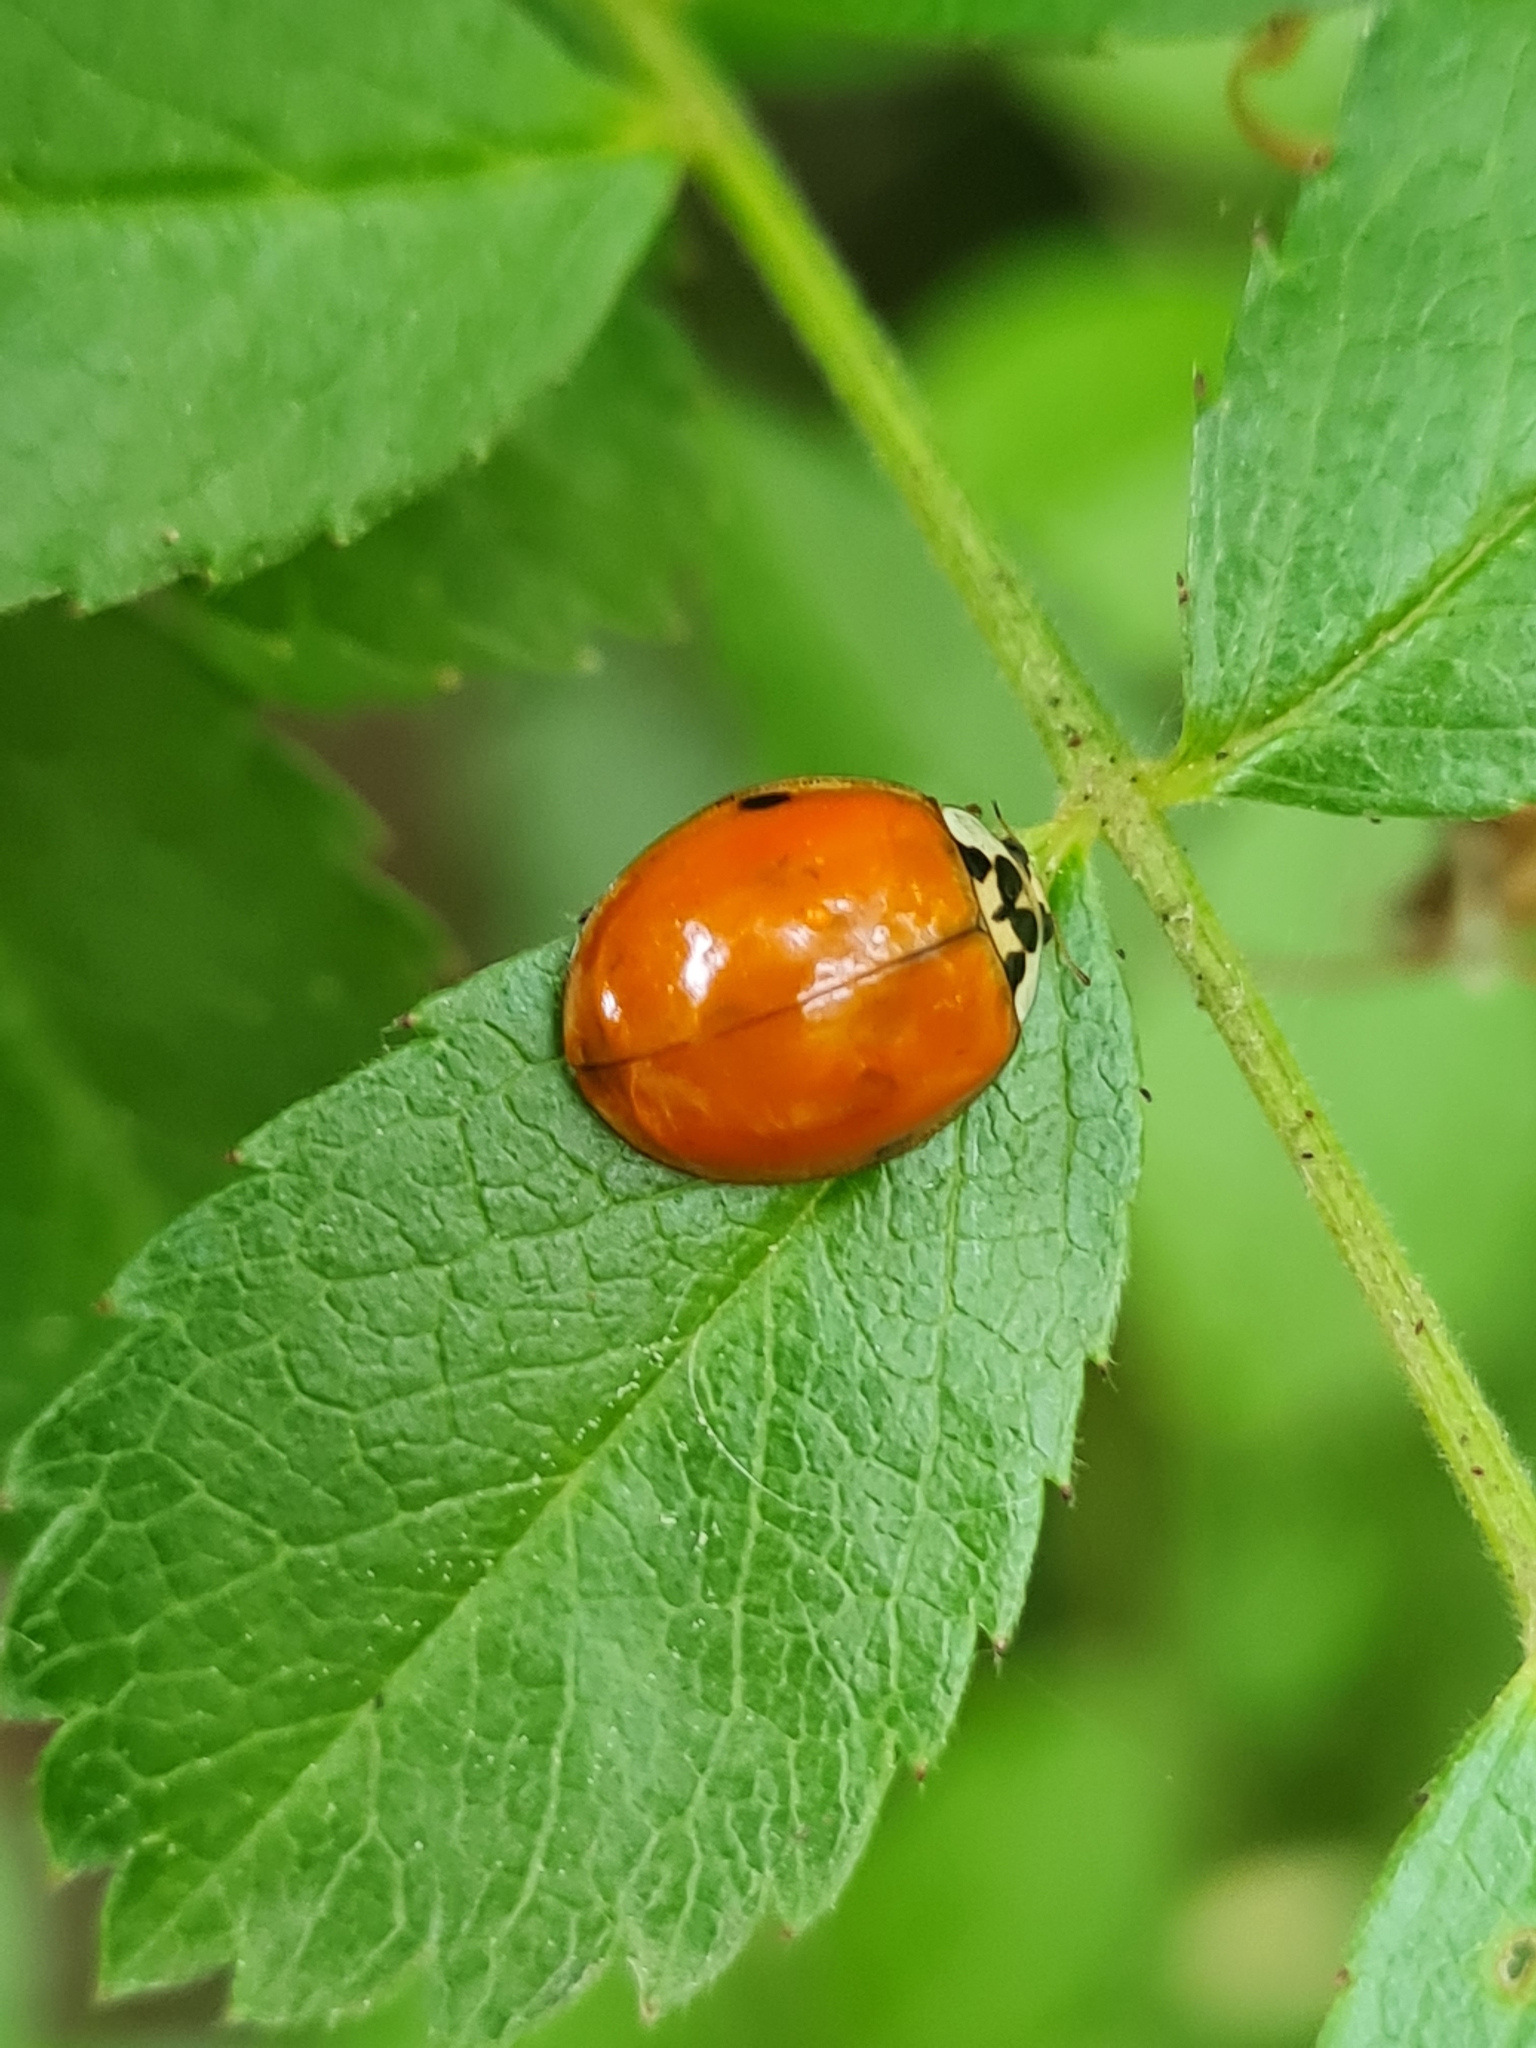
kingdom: Animalia
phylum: Arthropoda
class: Insecta
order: Coleoptera
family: Coccinellidae
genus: Harmonia
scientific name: Harmonia axyridis
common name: Harlequin ladybird
